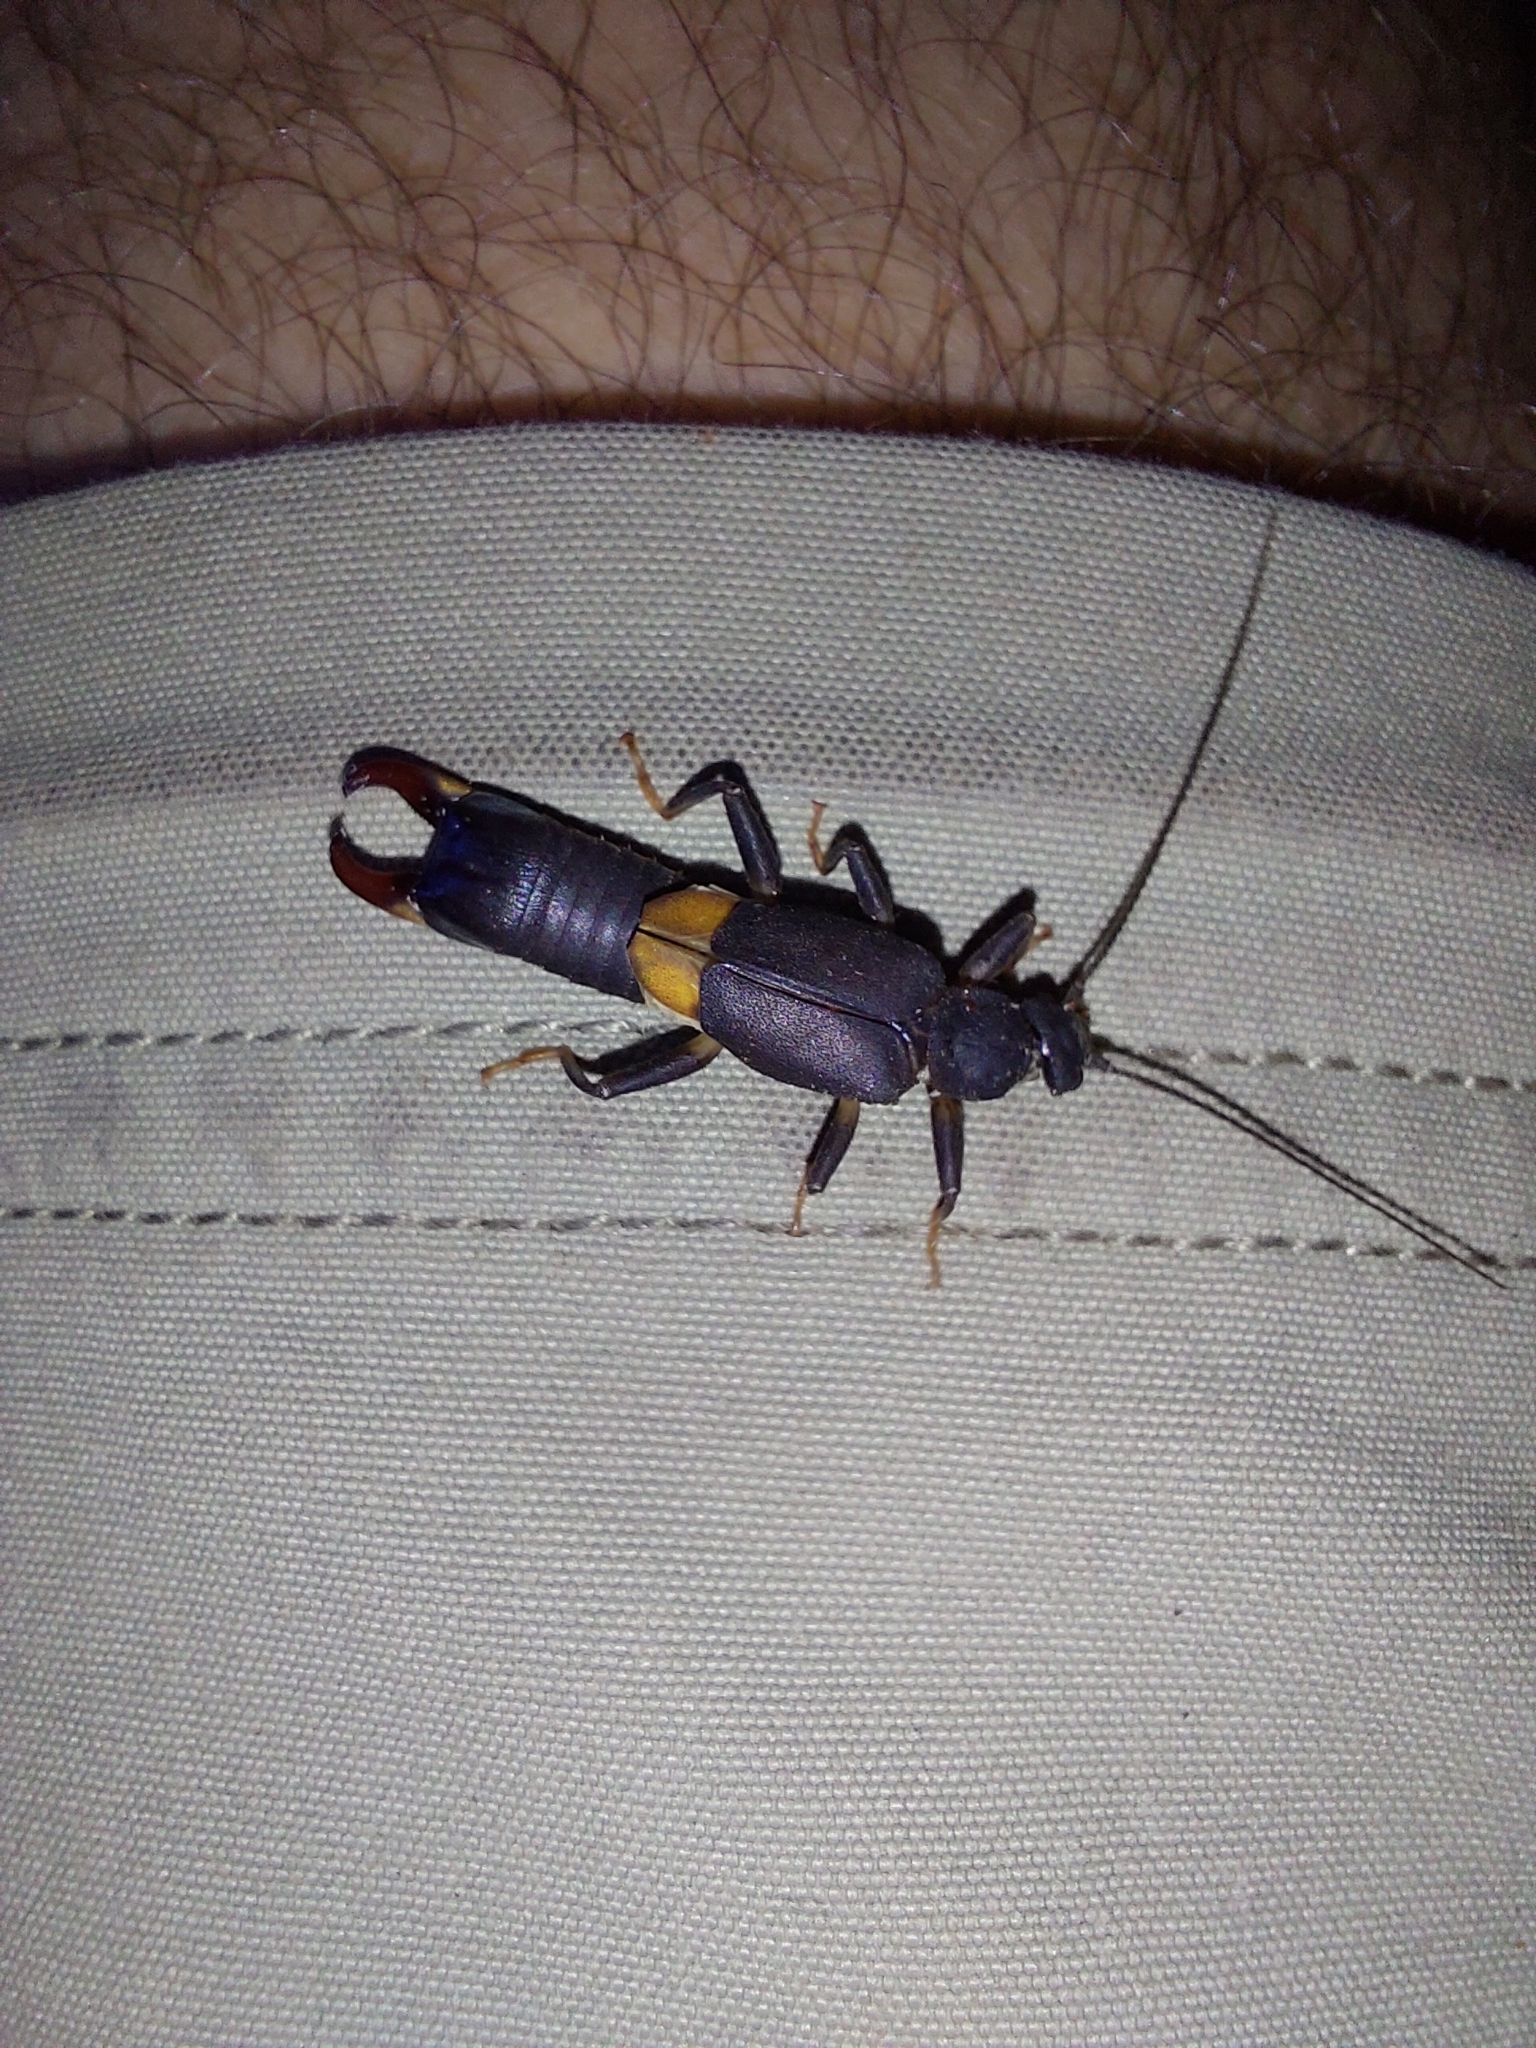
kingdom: Animalia
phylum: Arthropoda
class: Insecta
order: Dermaptera
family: Pygidicranidae
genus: Pyragra
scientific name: Pyragra paraguayensis
